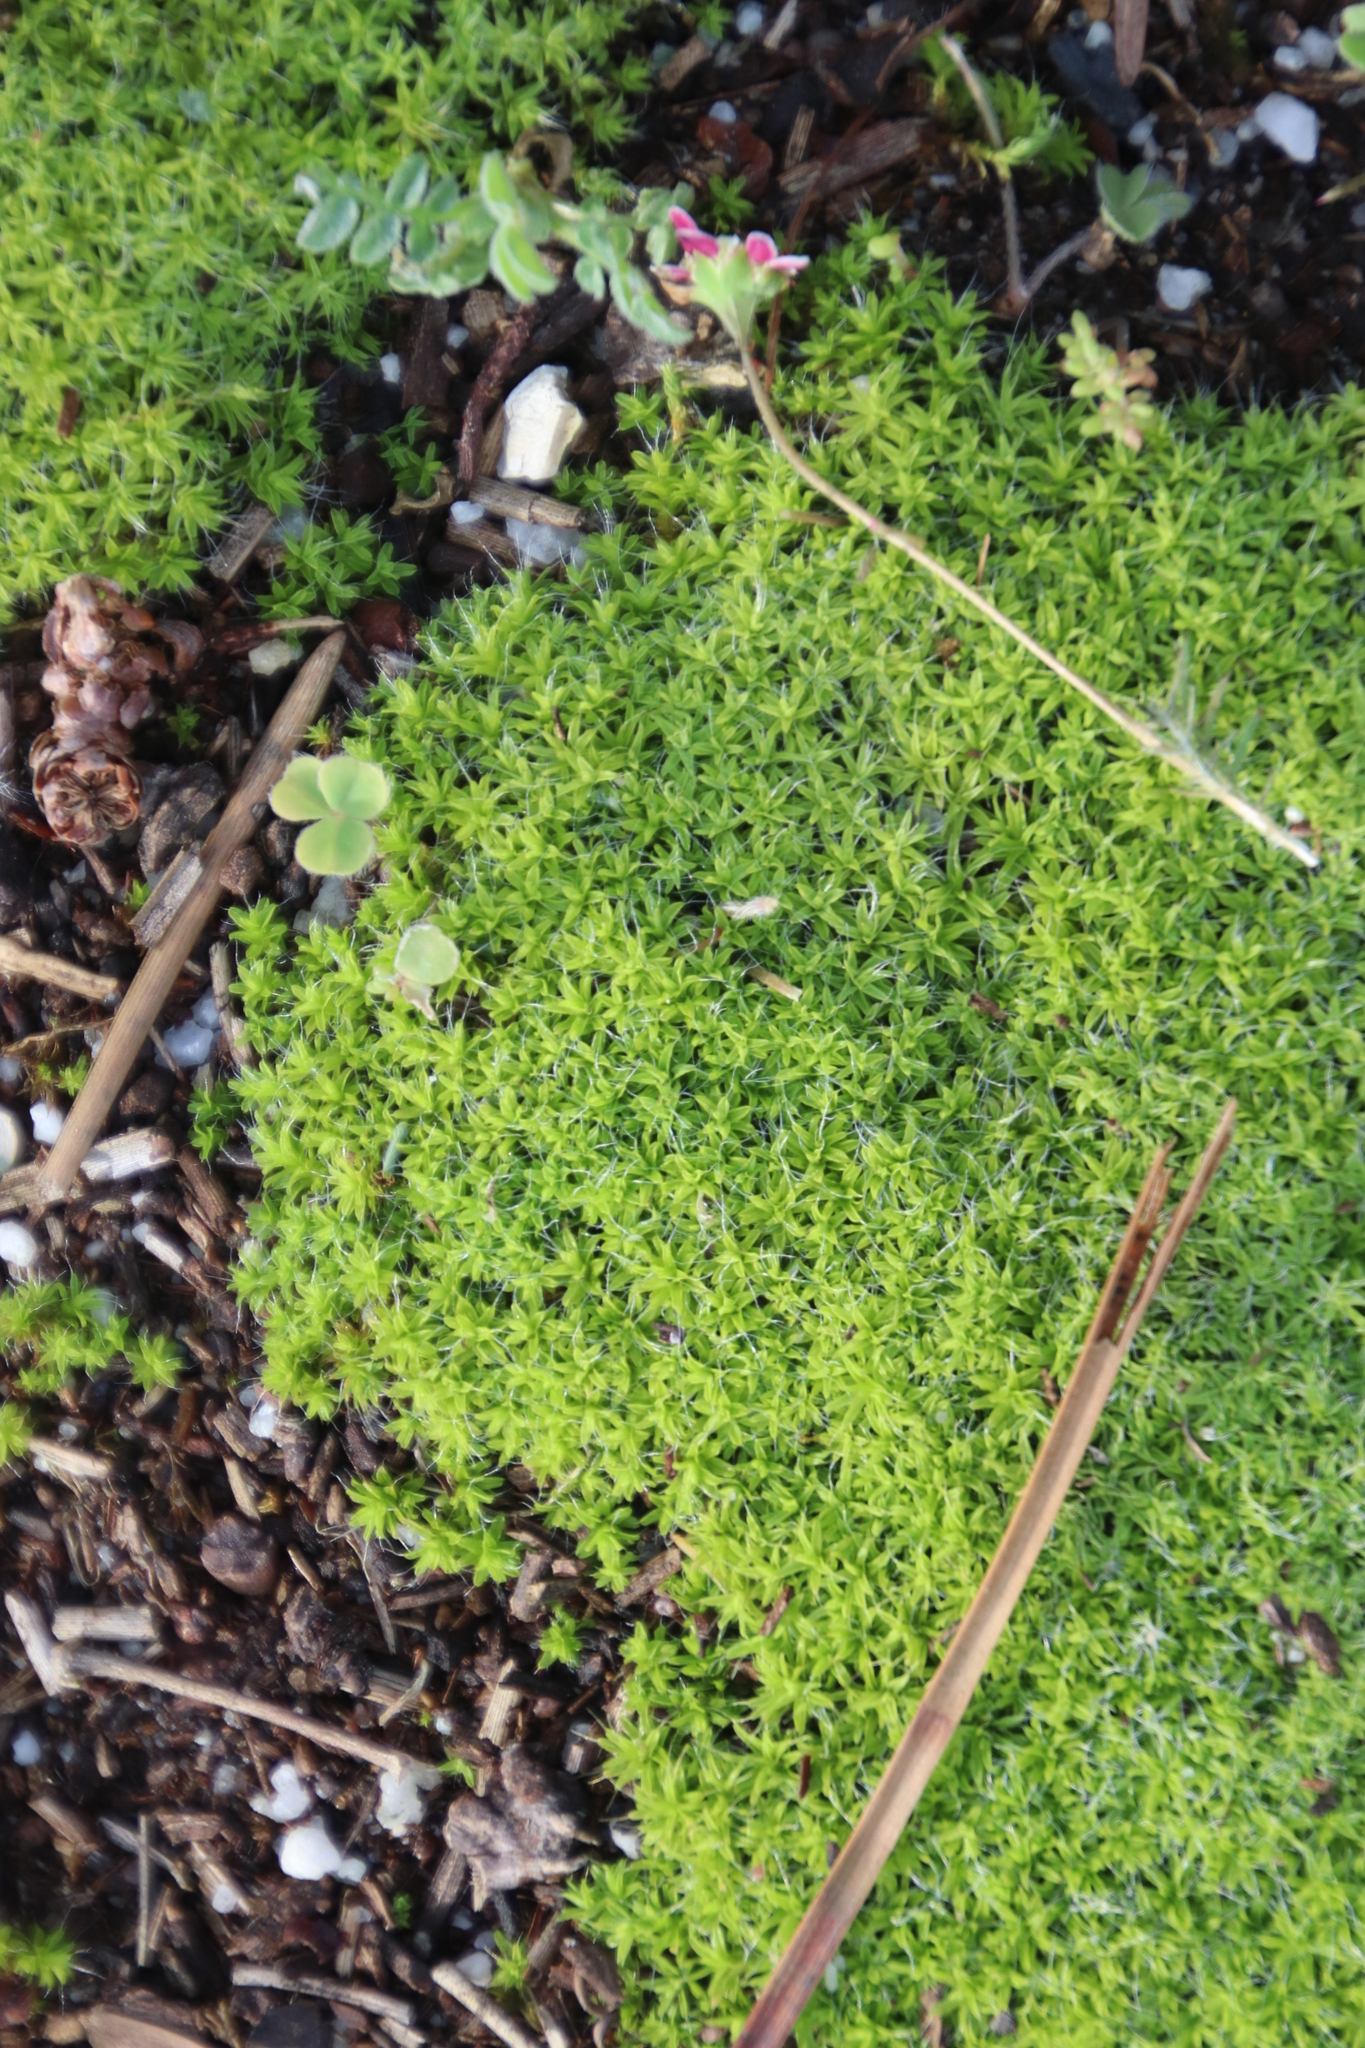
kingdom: Plantae
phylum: Bryophyta
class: Bryopsida
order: Pottiales
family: Pottiaceae
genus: Pseudocrossidium
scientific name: Pseudocrossidium crinitum
